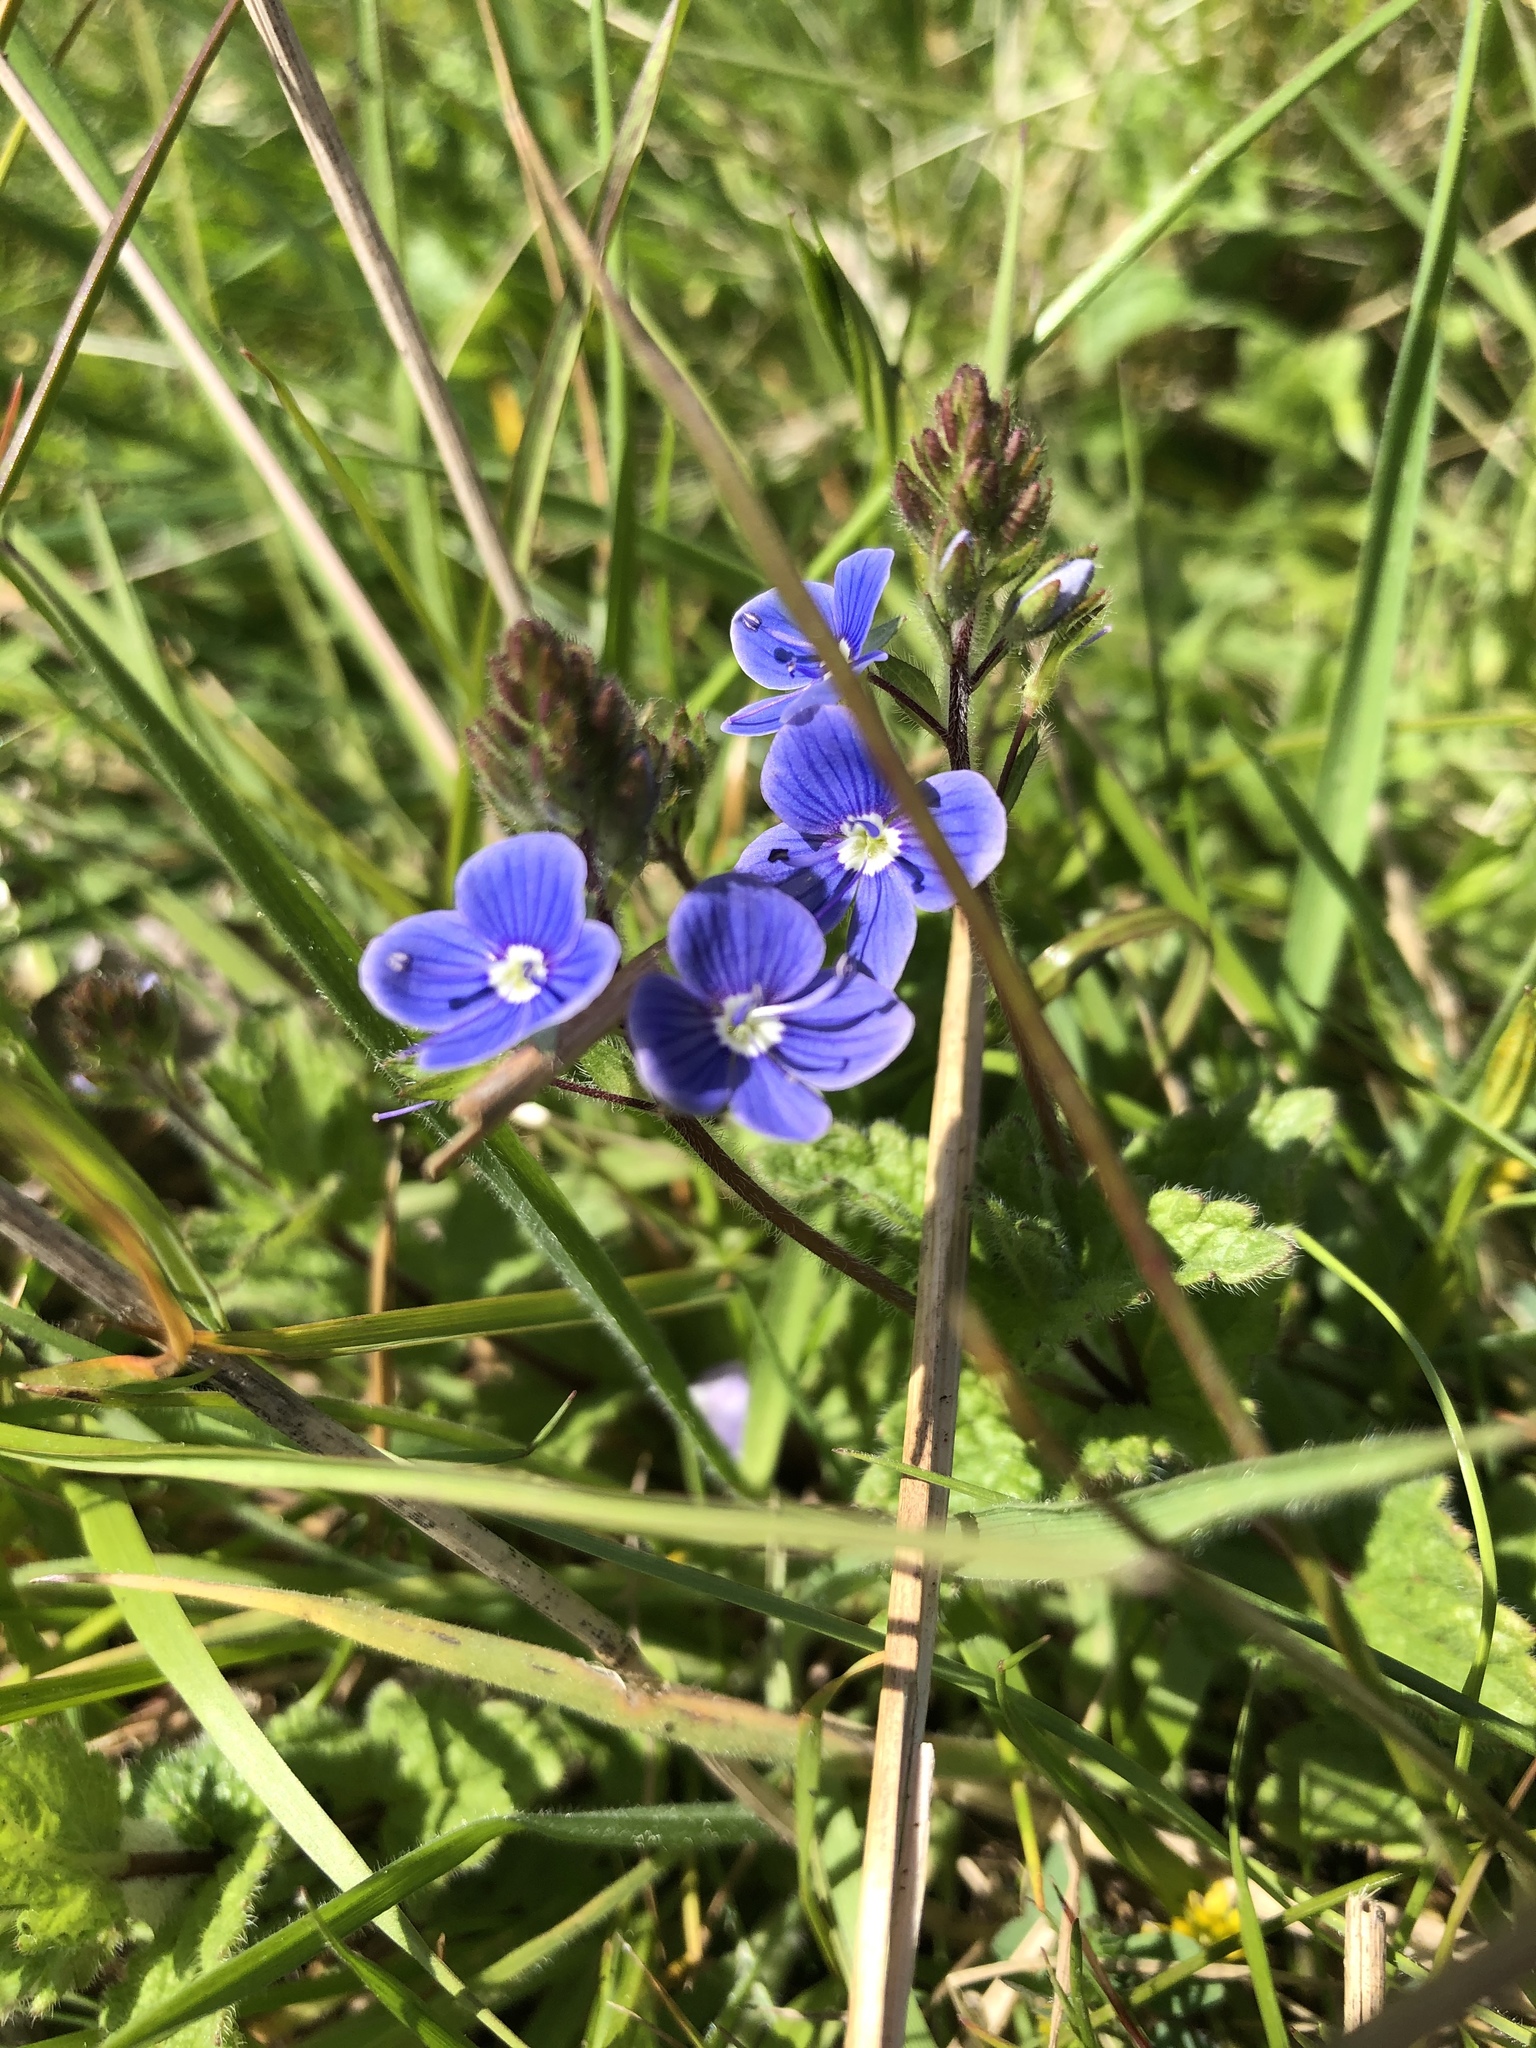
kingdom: Plantae
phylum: Tracheophyta
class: Magnoliopsida
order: Lamiales
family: Plantaginaceae
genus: Veronica
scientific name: Veronica chamaedrys
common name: Germander speedwell
